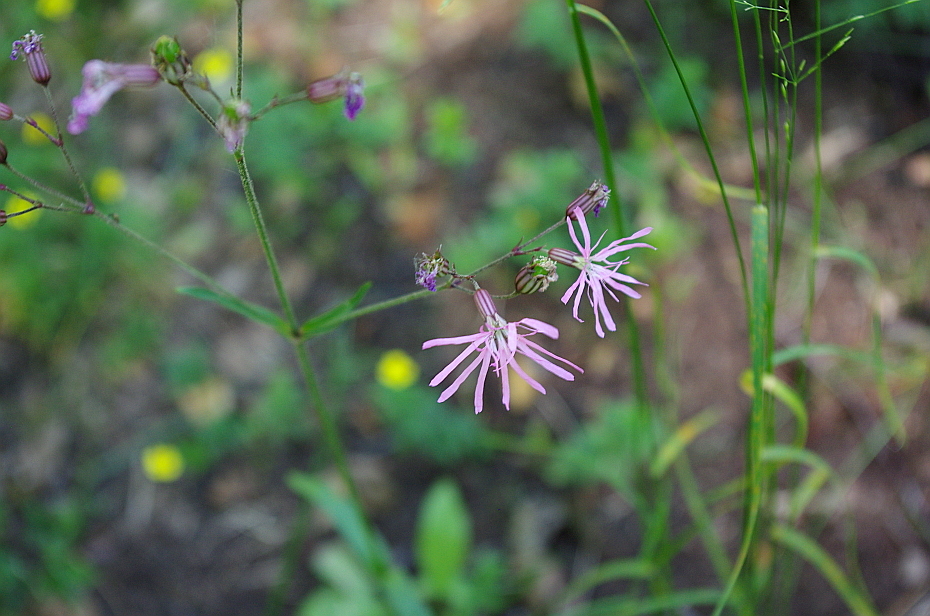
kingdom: Plantae
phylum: Tracheophyta
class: Magnoliopsida
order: Caryophyllales
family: Caryophyllaceae
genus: Silene
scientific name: Silene flos-cuculi
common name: Ragged-robin
